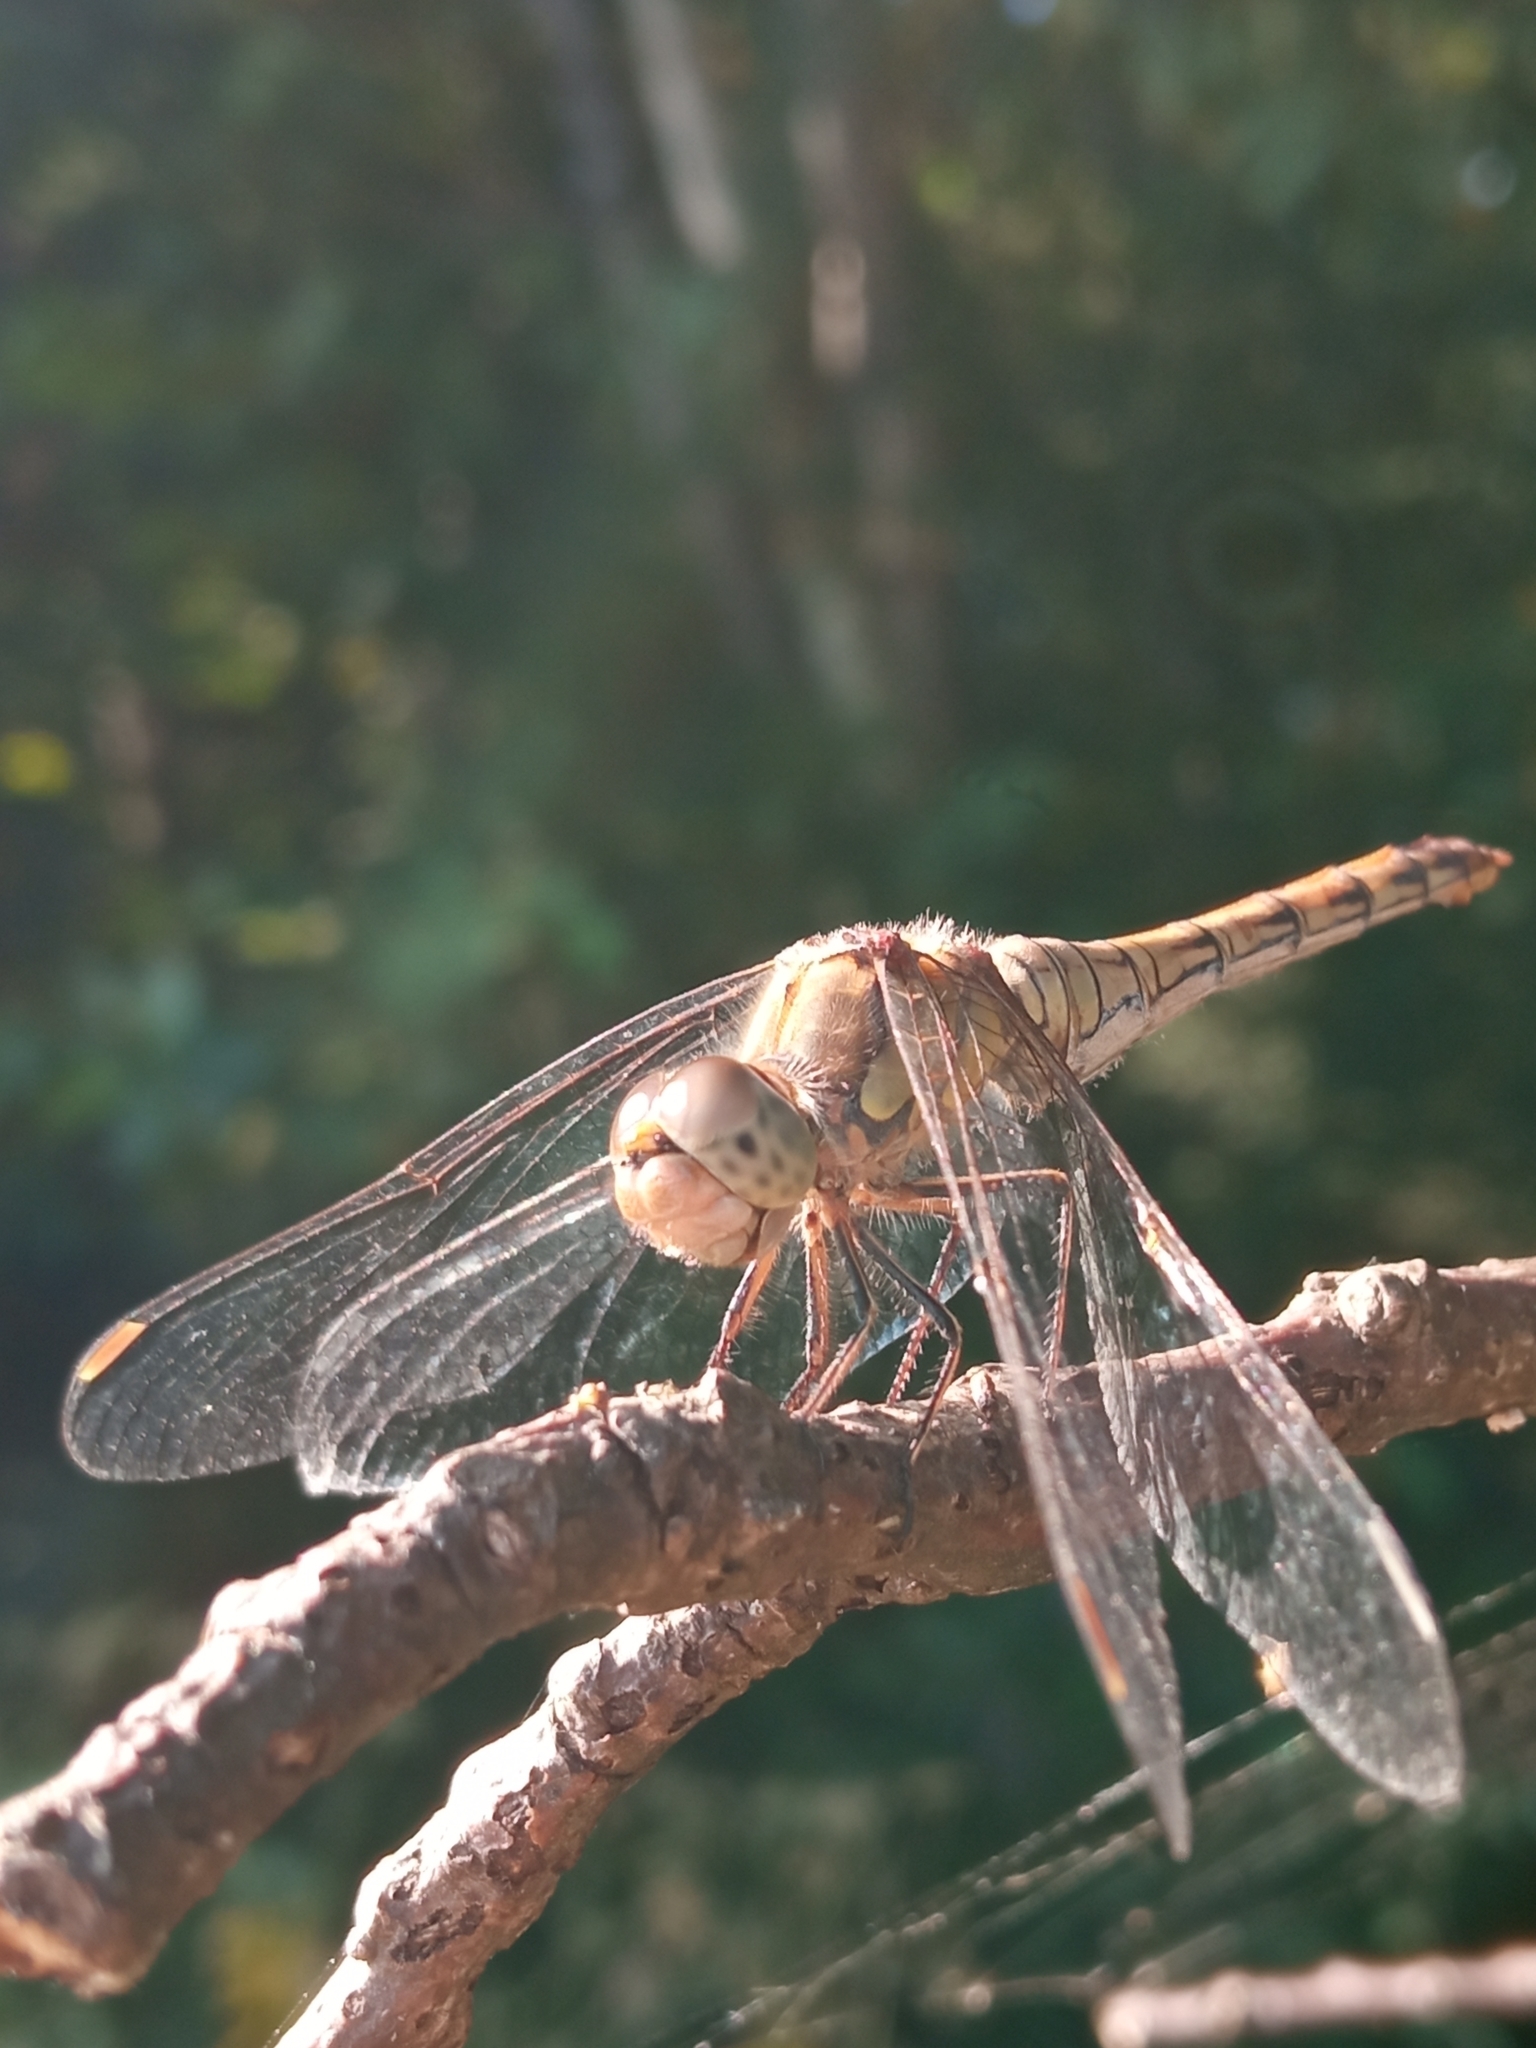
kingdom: Animalia
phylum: Arthropoda
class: Insecta
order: Odonata
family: Libellulidae
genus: Sympetrum
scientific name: Sympetrum striolatum
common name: Common darter
